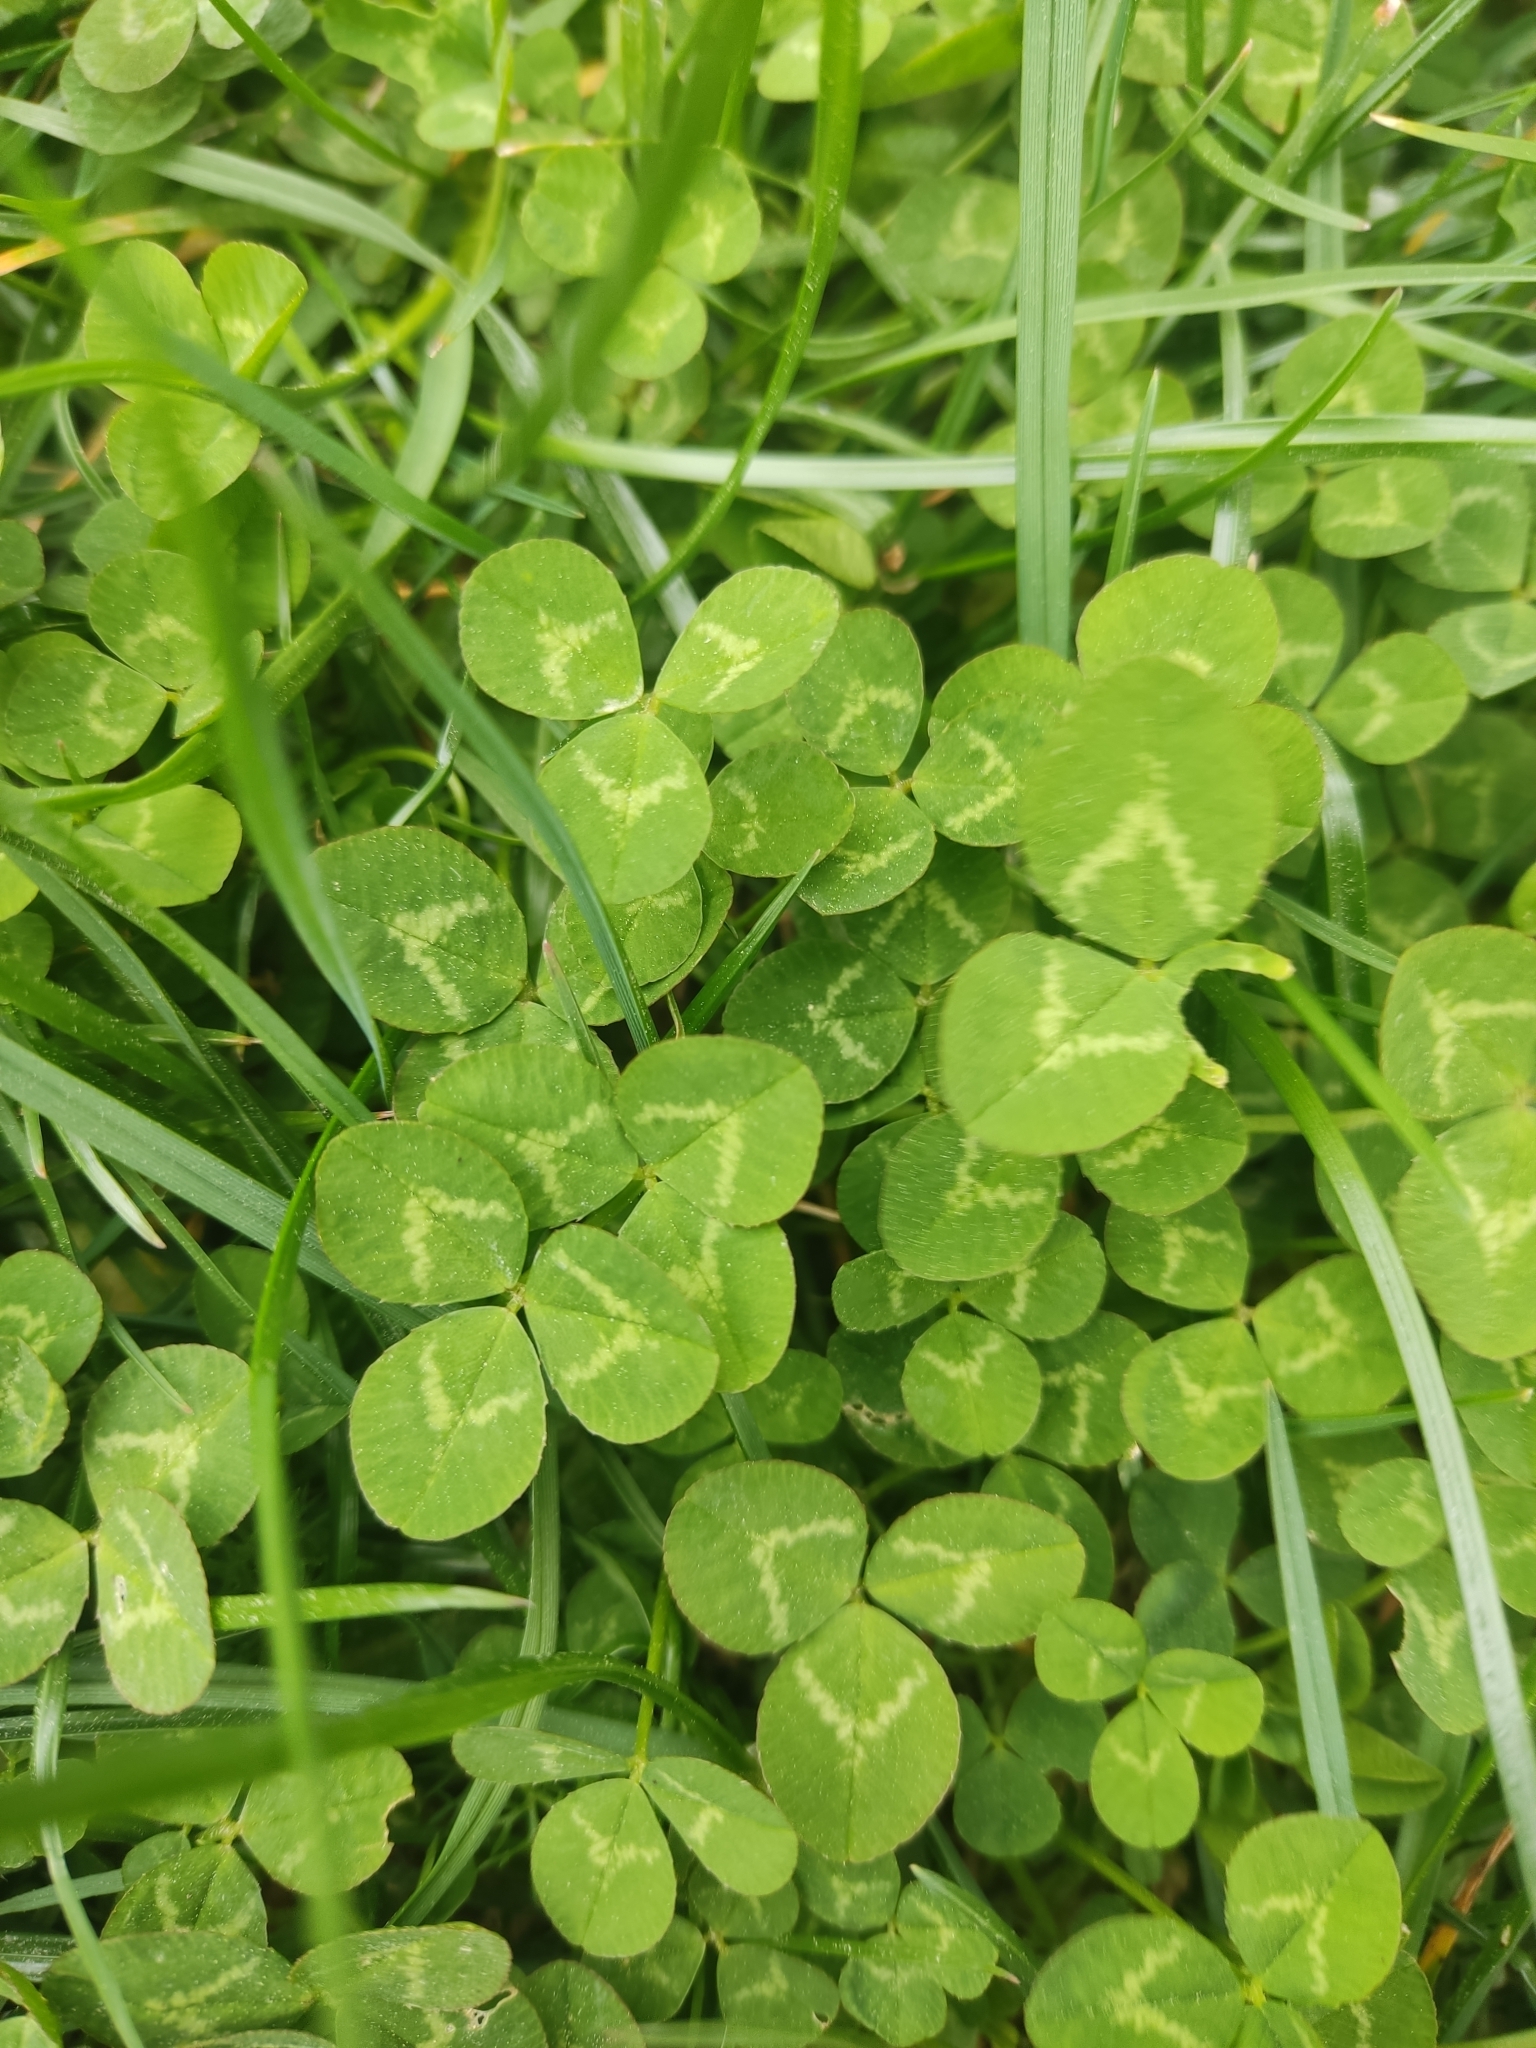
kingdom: Plantae
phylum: Tracheophyta
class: Magnoliopsida
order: Fabales
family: Fabaceae
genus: Trifolium
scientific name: Trifolium repens
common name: White clover
